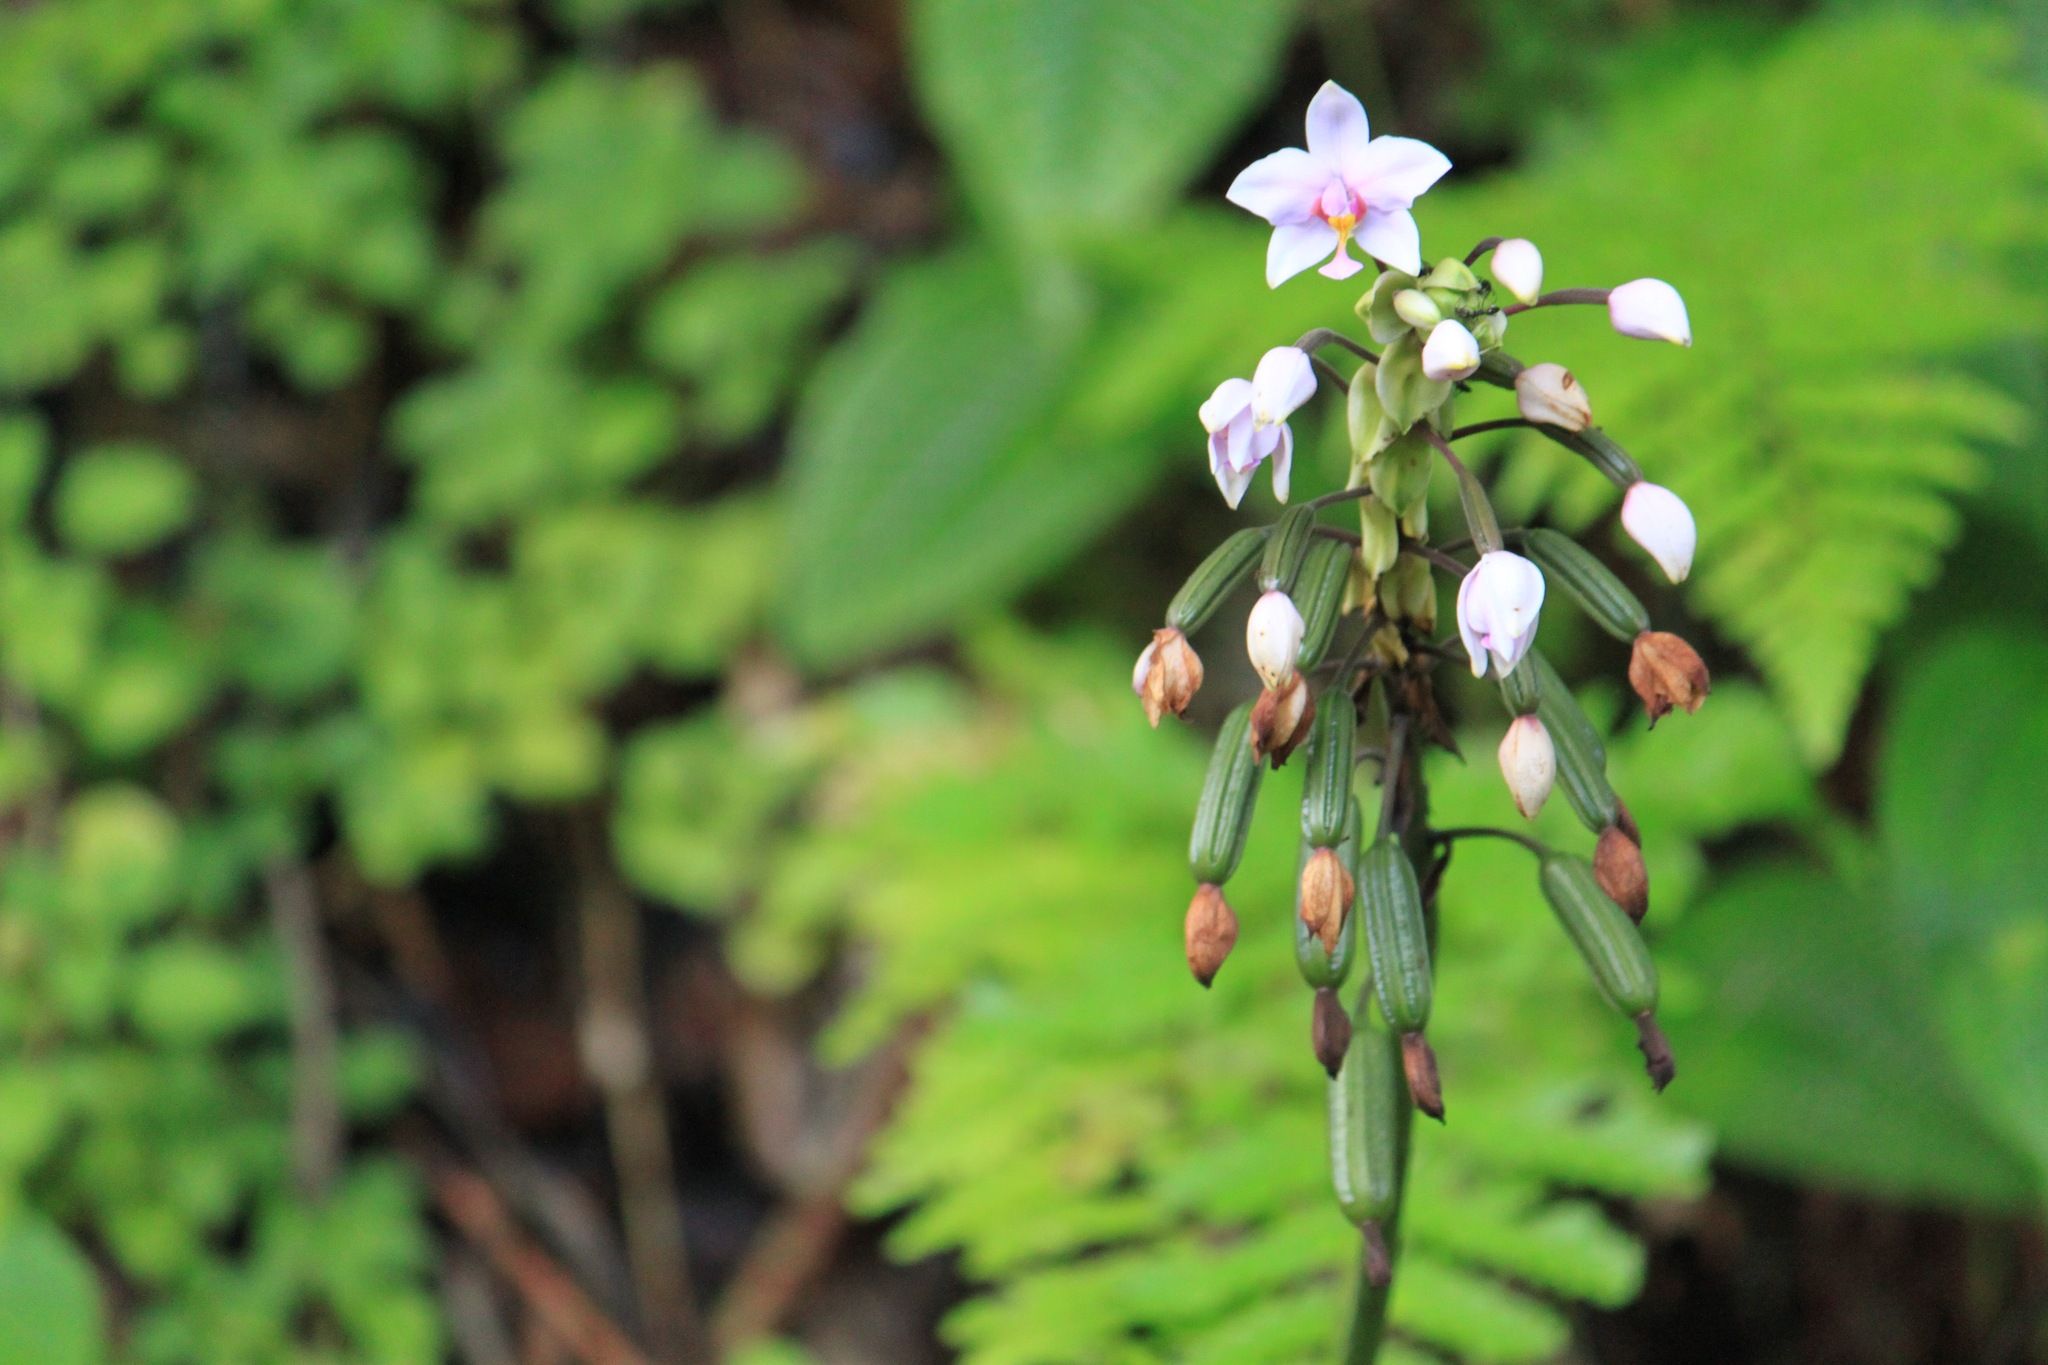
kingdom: Plantae
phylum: Tracheophyta
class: Liliopsida
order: Asparagales
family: Orchidaceae
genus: Spathoglottis
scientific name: Spathoglottis plicata
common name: Philippine ground orchid
